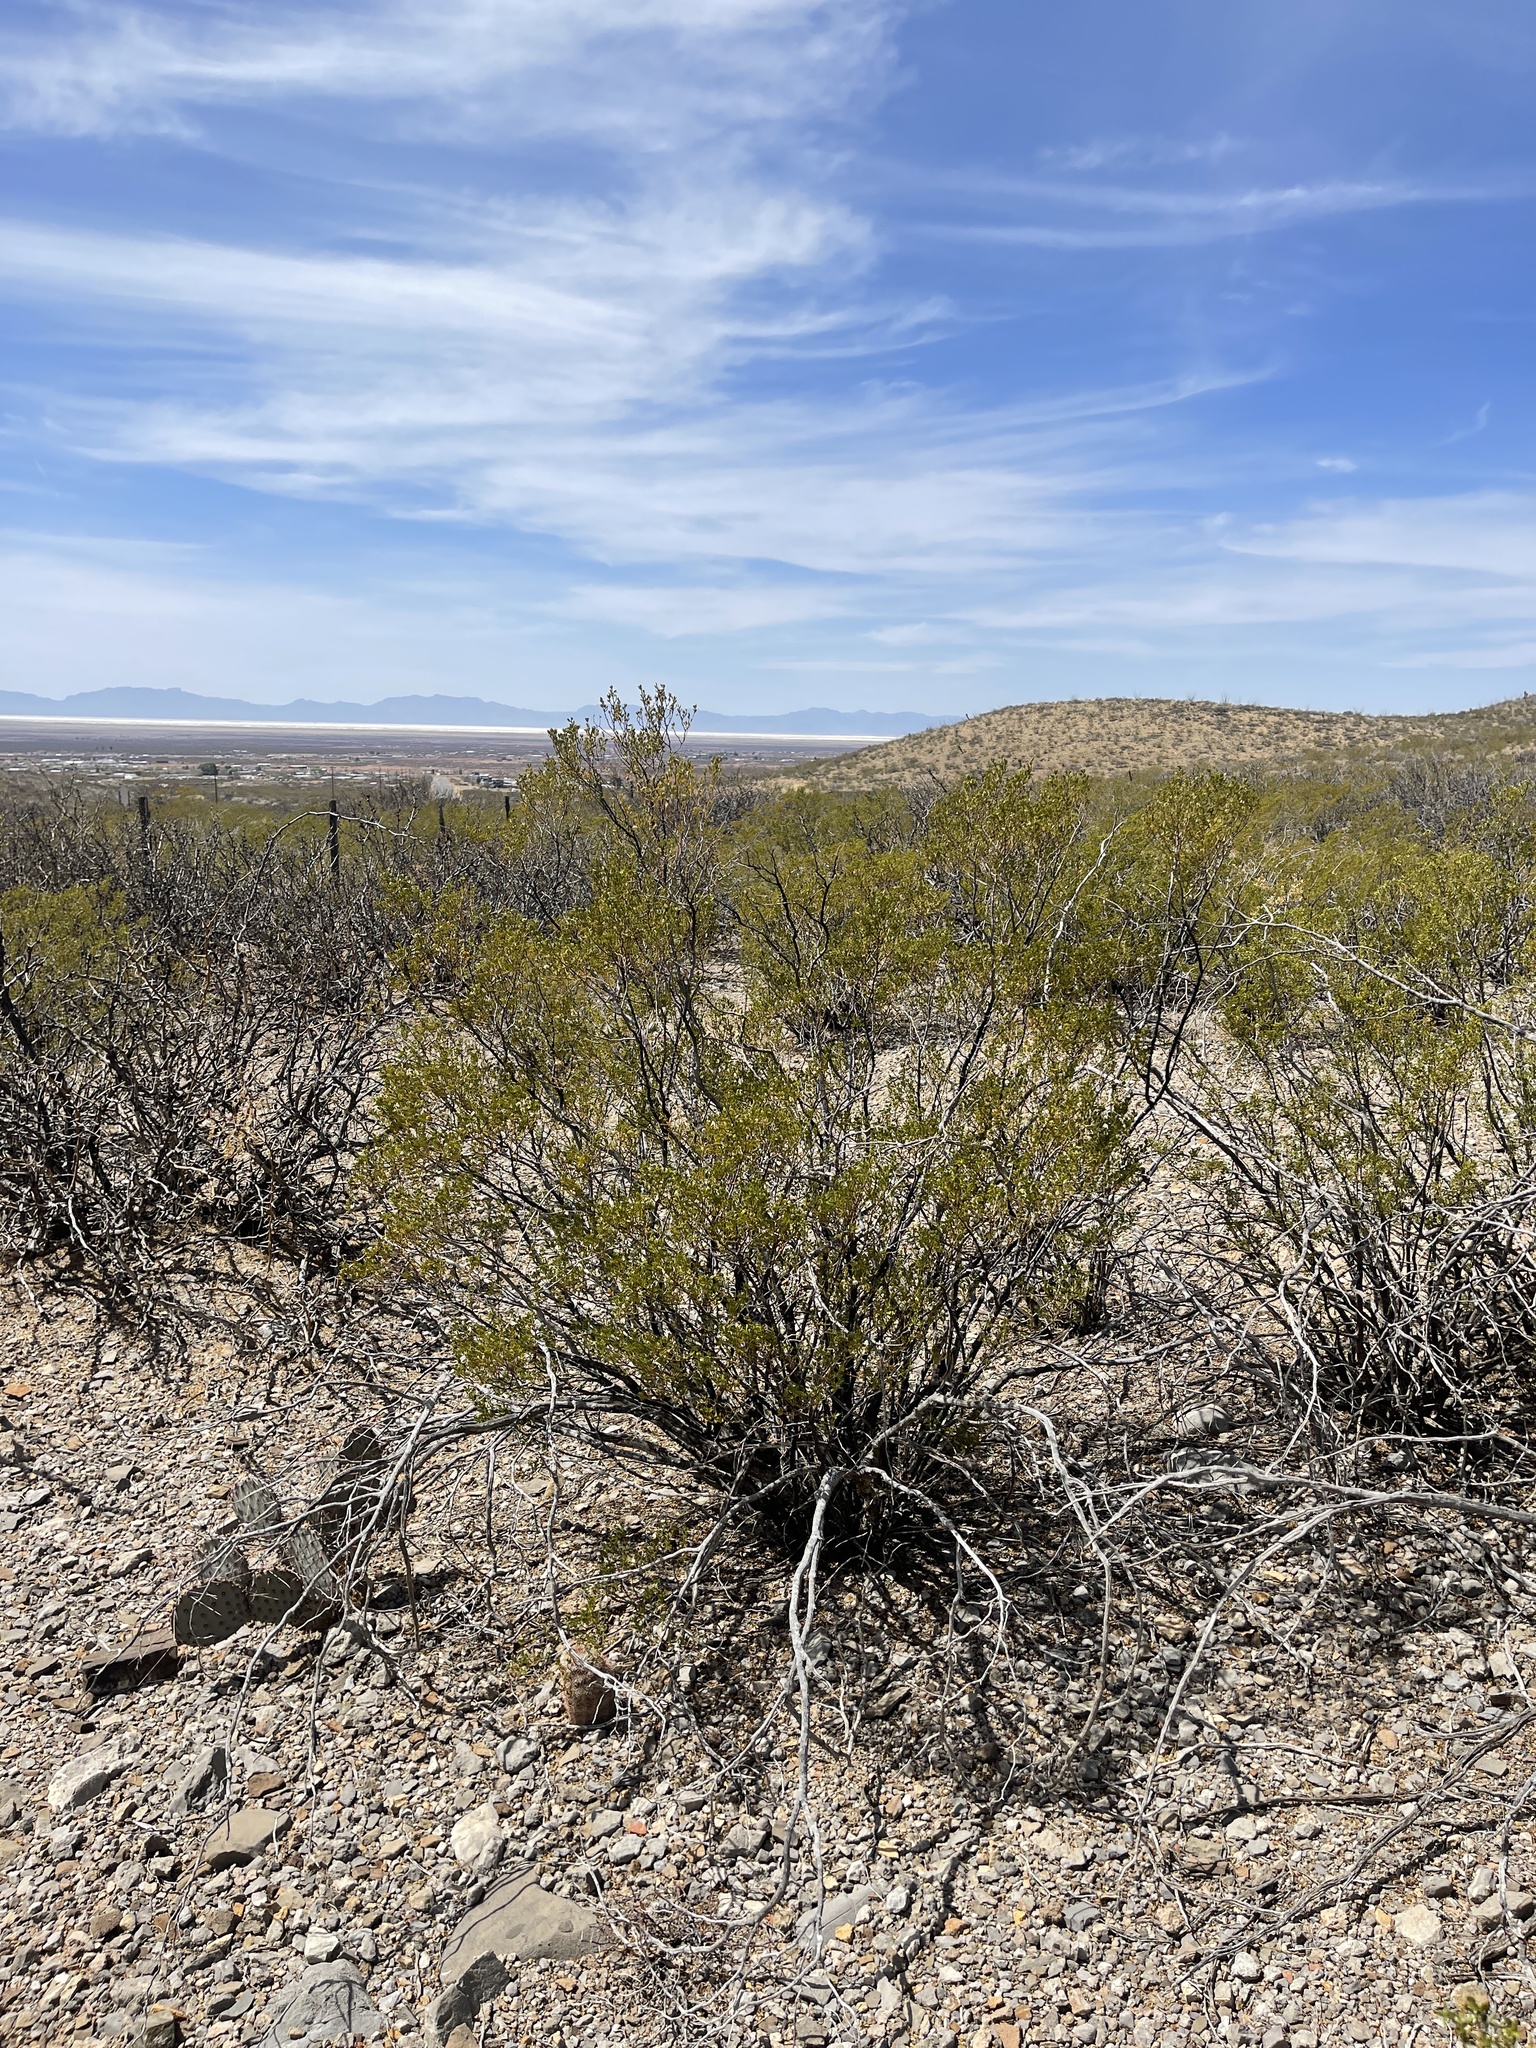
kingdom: Plantae
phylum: Tracheophyta
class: Magnoliopsida
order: Zygophyllales
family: Zygophyllaceae
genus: Larrea
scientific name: Larrea tridentata
